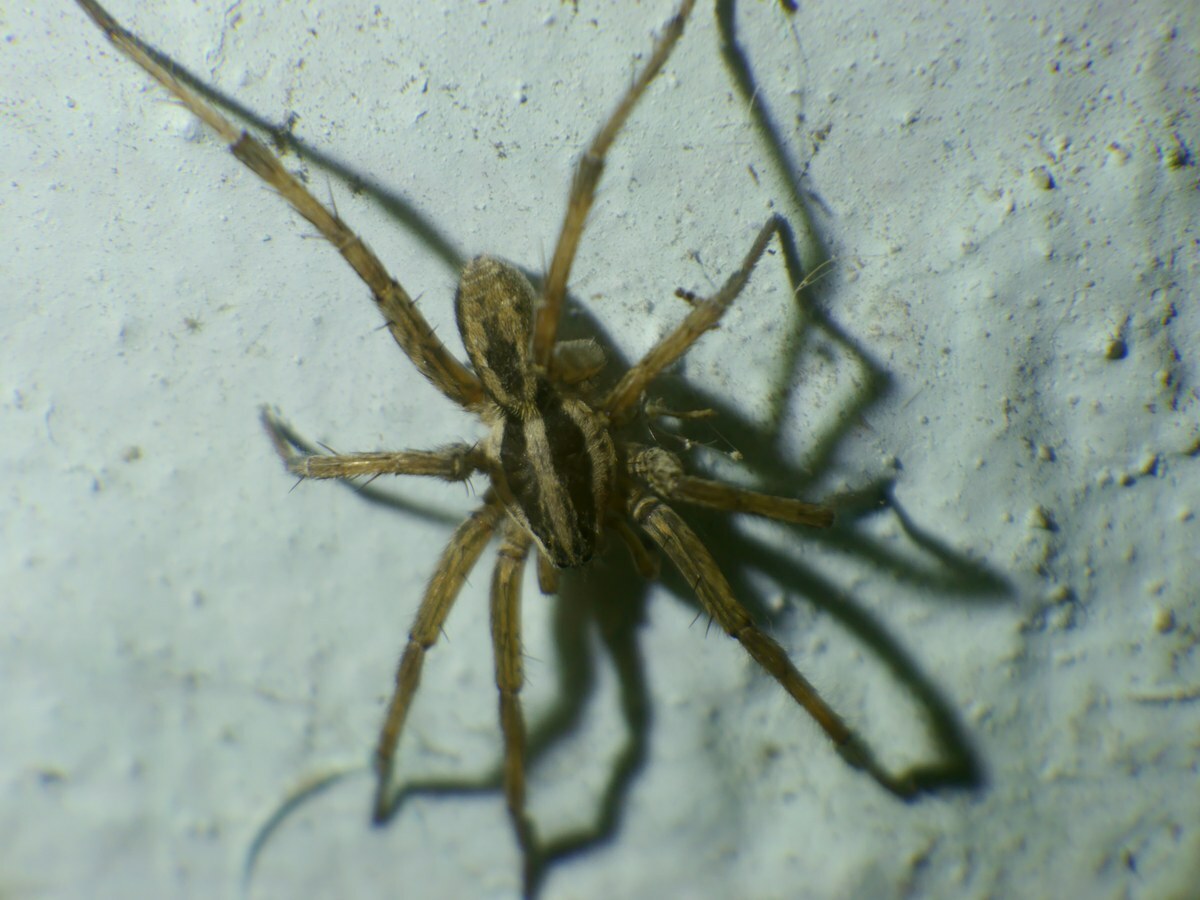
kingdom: Animalia
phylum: Arthropoda
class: Arachnida
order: Araneae
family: Lycosidae
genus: Hogna
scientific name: Hogna radiata
